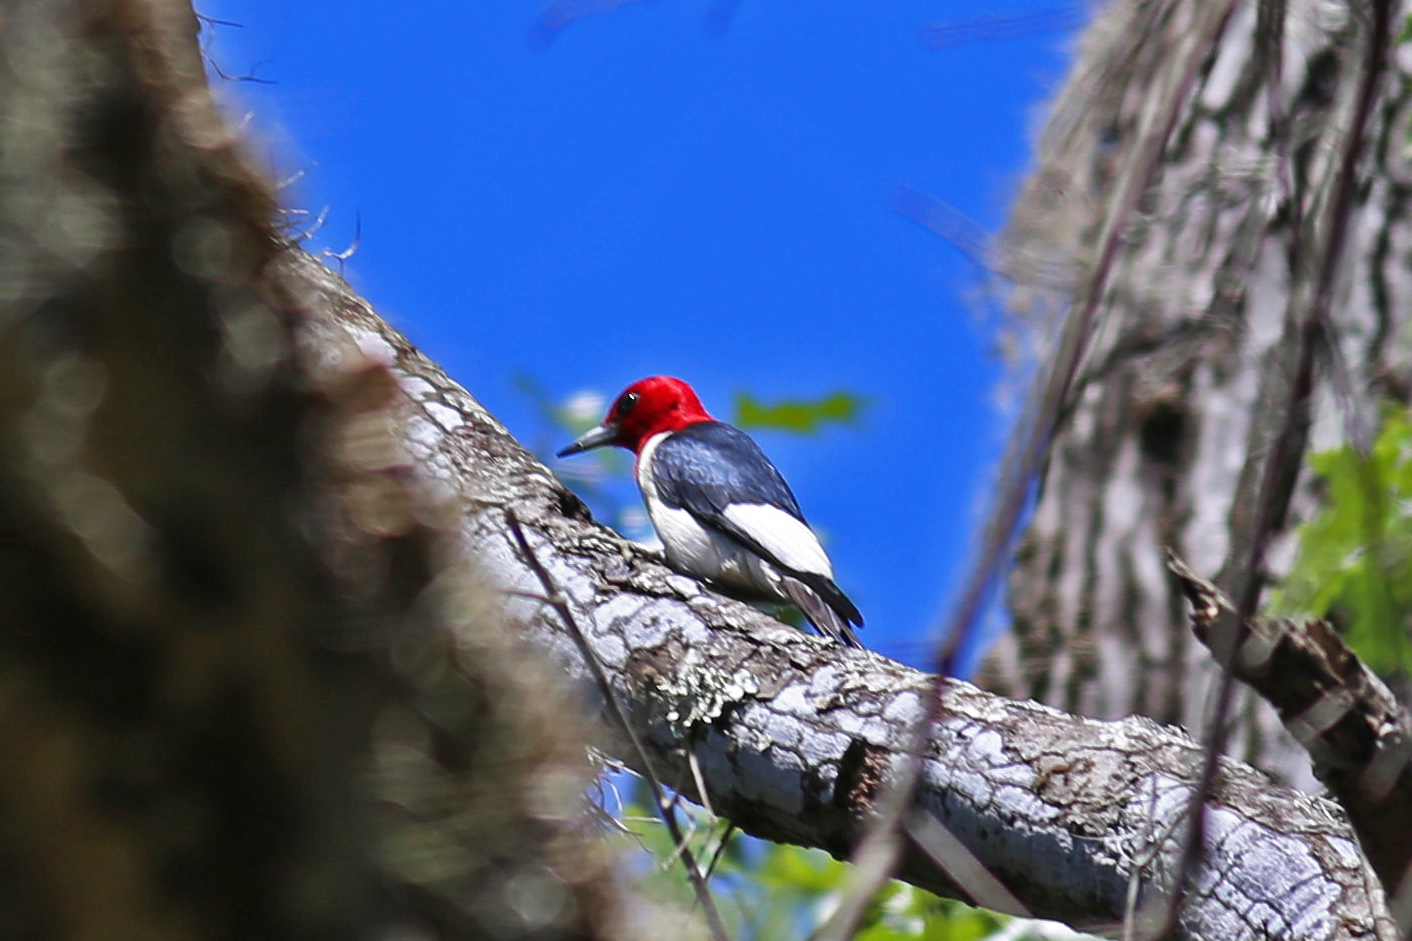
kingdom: Animalia
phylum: Chordata
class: Aves
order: Piciformes
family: Picidae
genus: Melanerpes
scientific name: Melanerpes erythrocephalus
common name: Red-headed woodpecker
